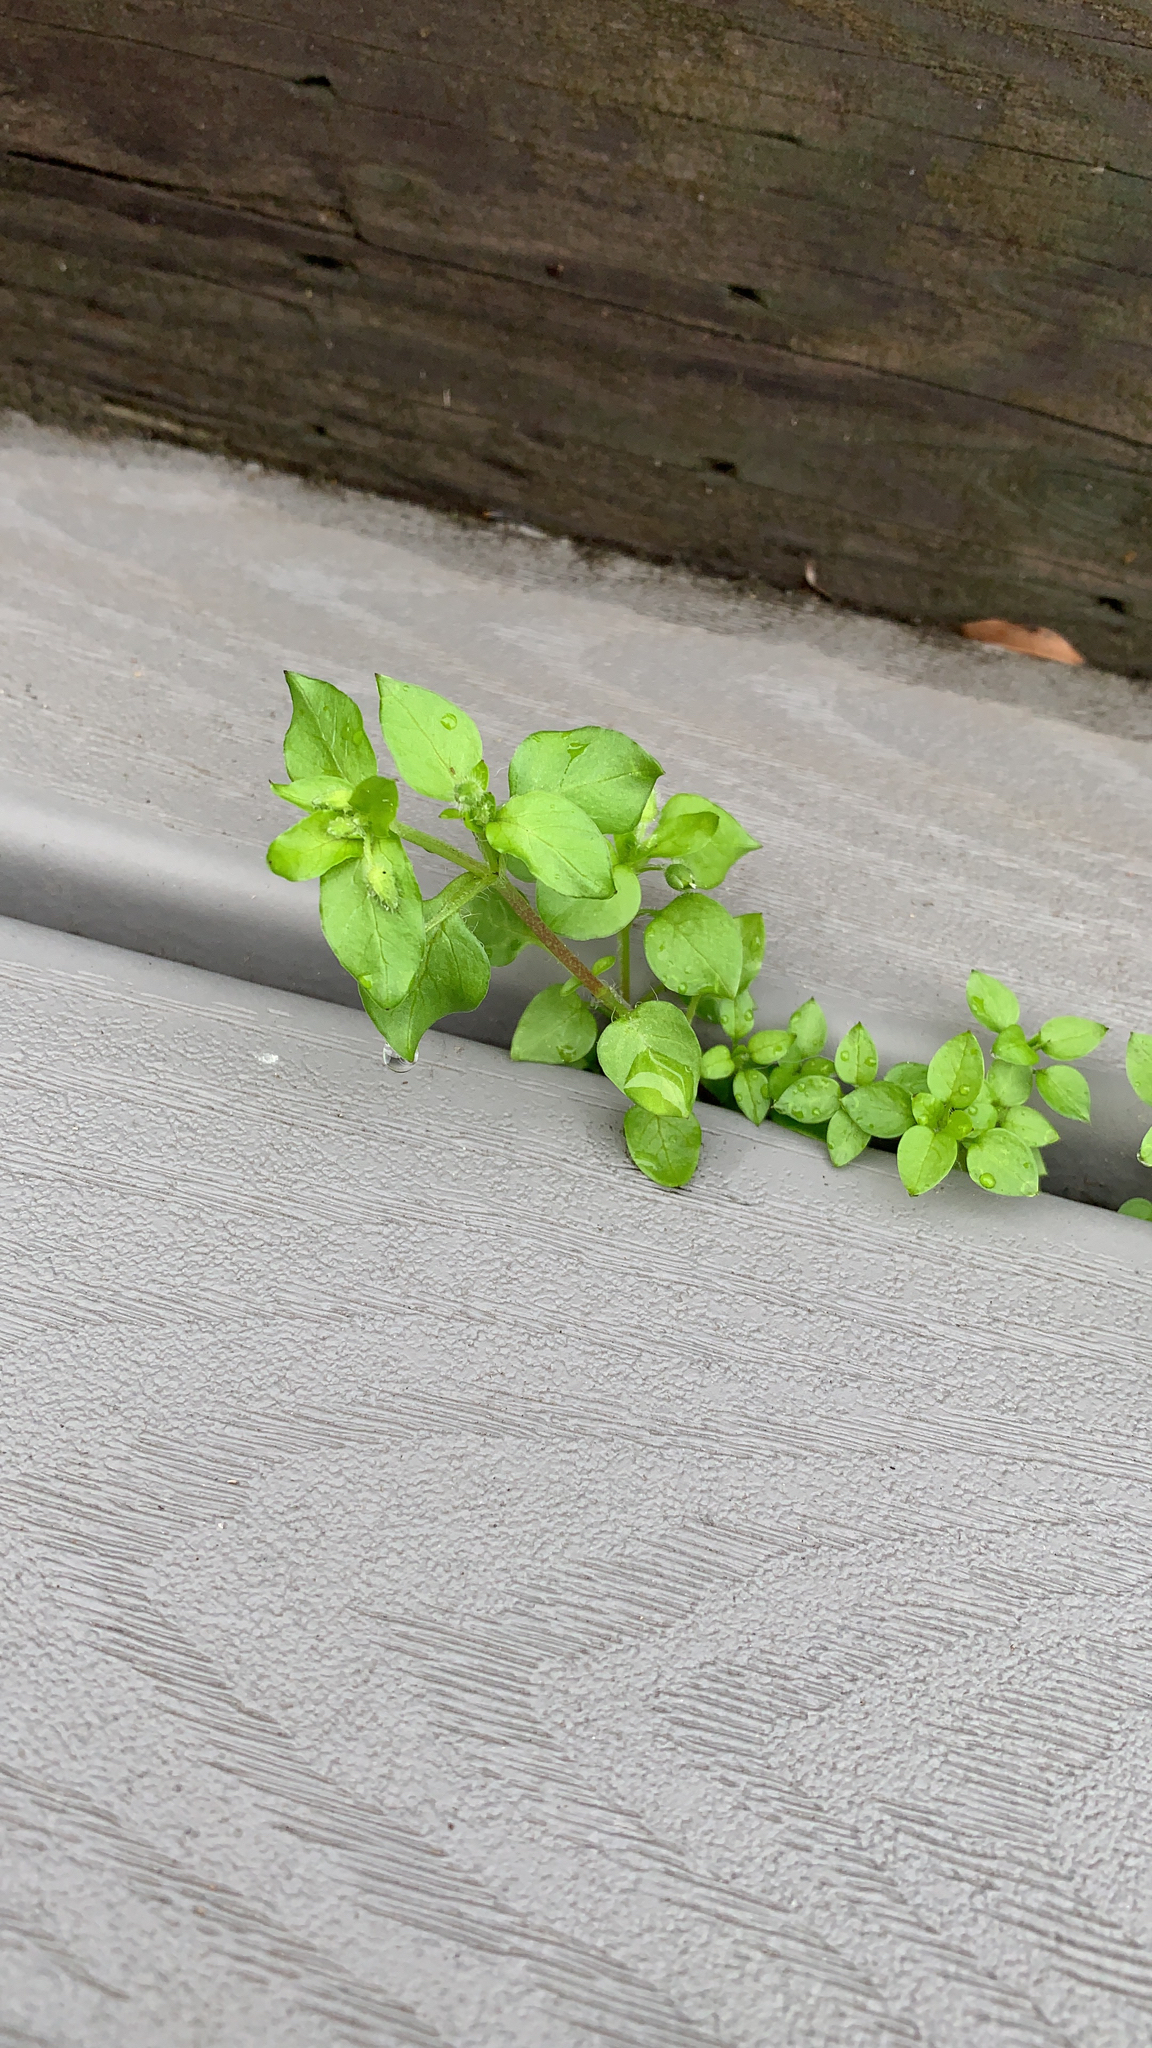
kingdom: Plantae
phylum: Tracheophyta
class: Magnoliopsida
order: Caryophyllales
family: Caryophyllaceae
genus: Stellaria
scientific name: Stellaria media
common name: Common chickweed
